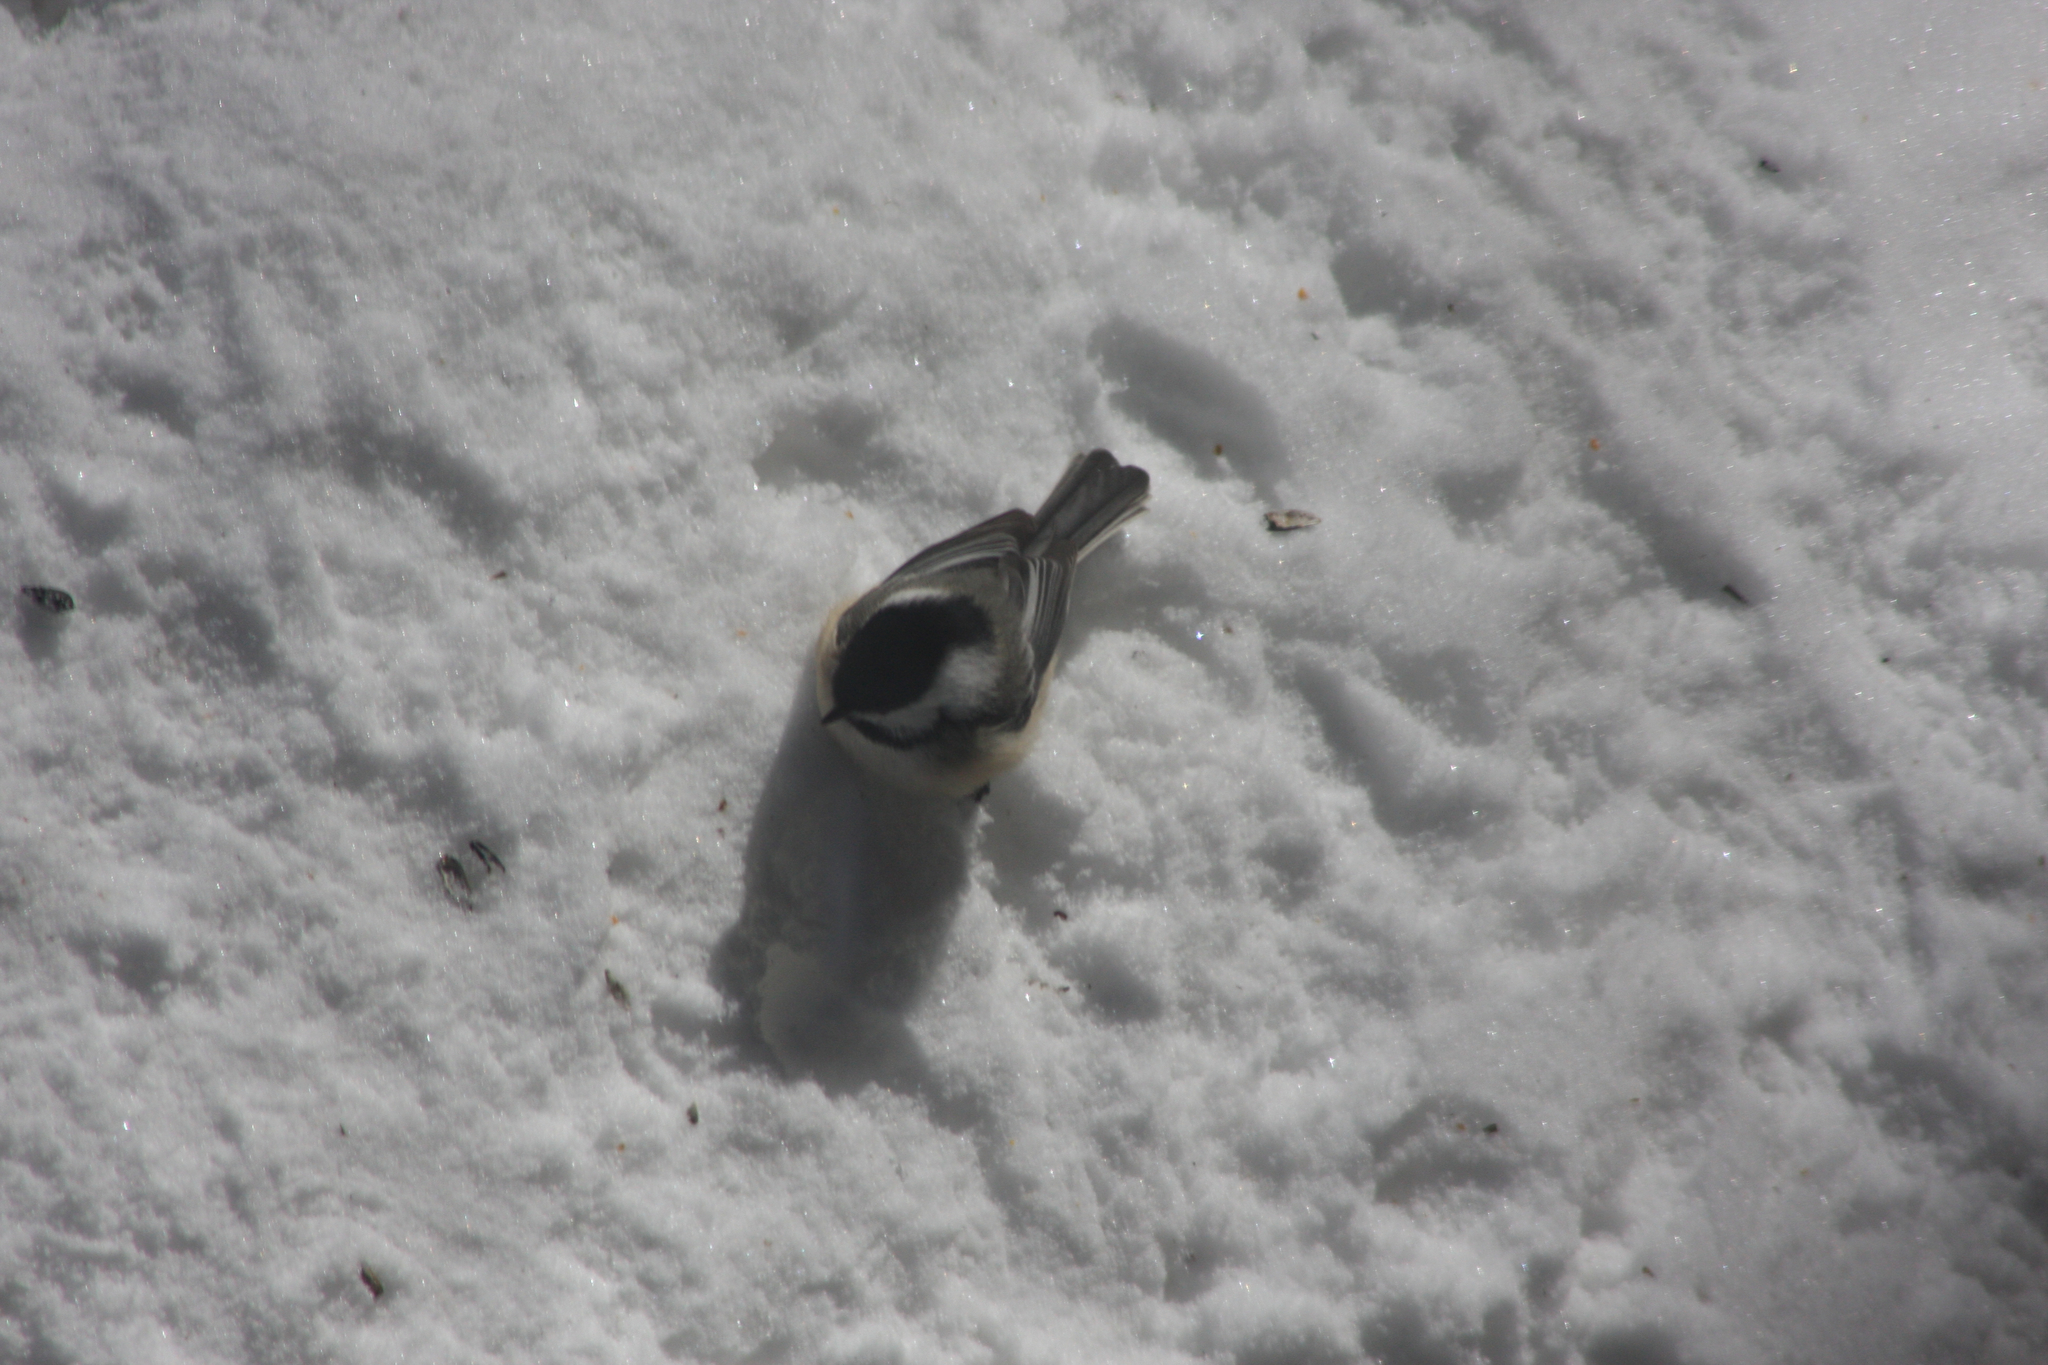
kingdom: Animalia
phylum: Chordata
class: Aves
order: Passeriformes
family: Paridae
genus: Poecile
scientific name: Poecile atricapillus
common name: Black-capped chickadee
